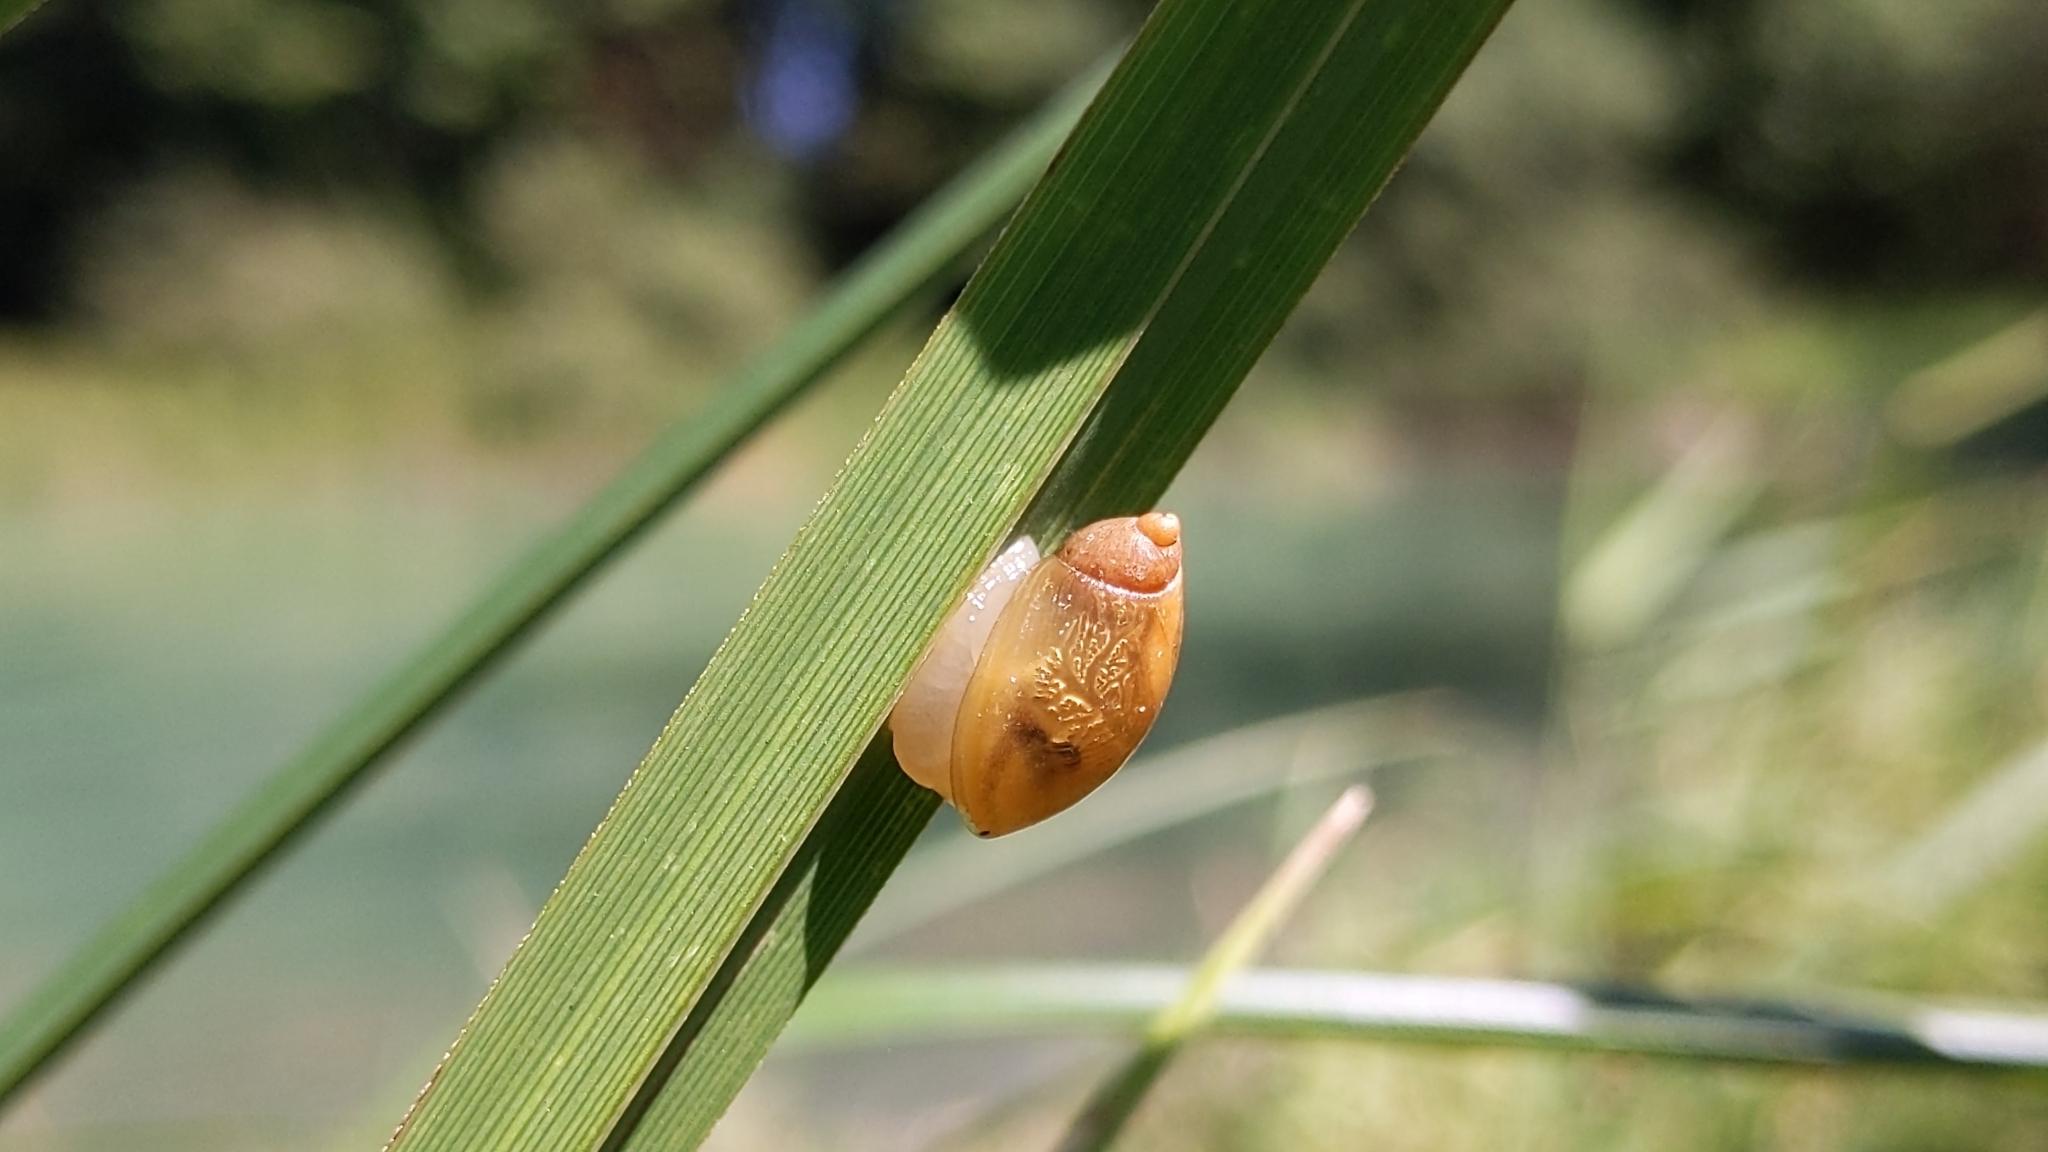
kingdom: Animalia
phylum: Mollusca
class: Gastropoda
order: Stylommatophora
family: Succineidae
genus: Succinea
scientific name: Succinea putris
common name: European ambersnail
